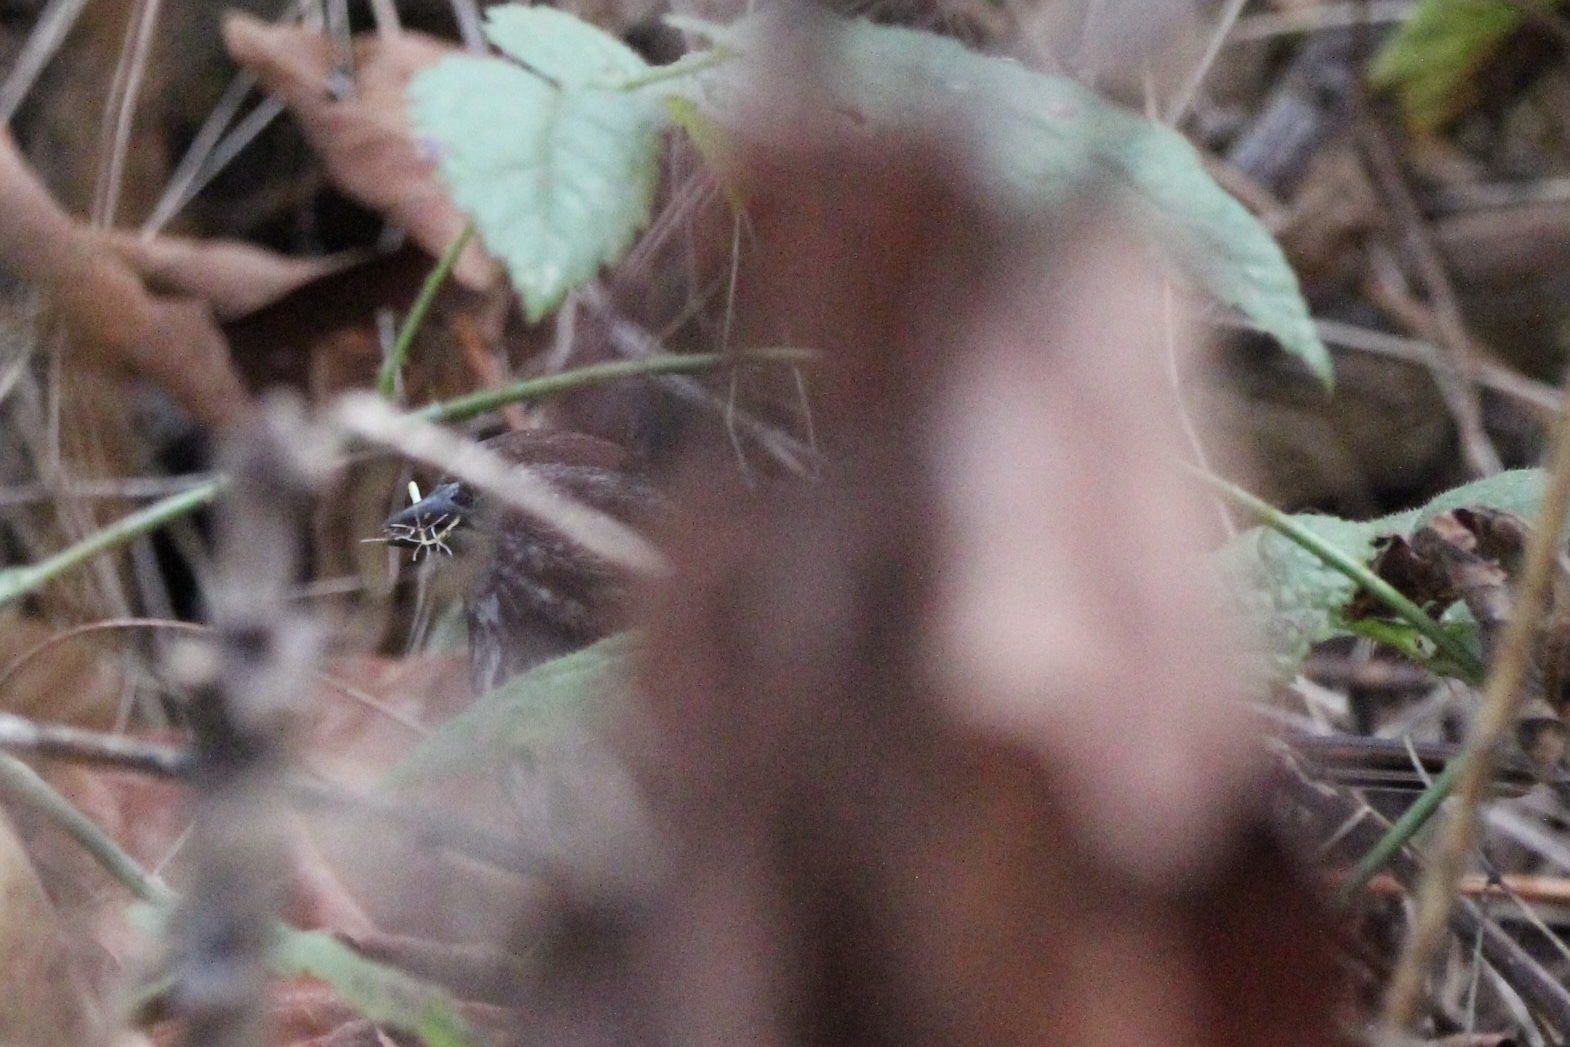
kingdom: Animalia
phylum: Chordata
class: Aves
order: Passeriformes
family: Passerellidae
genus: Melospiza
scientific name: Melospiza melodia
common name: Song sparrow
